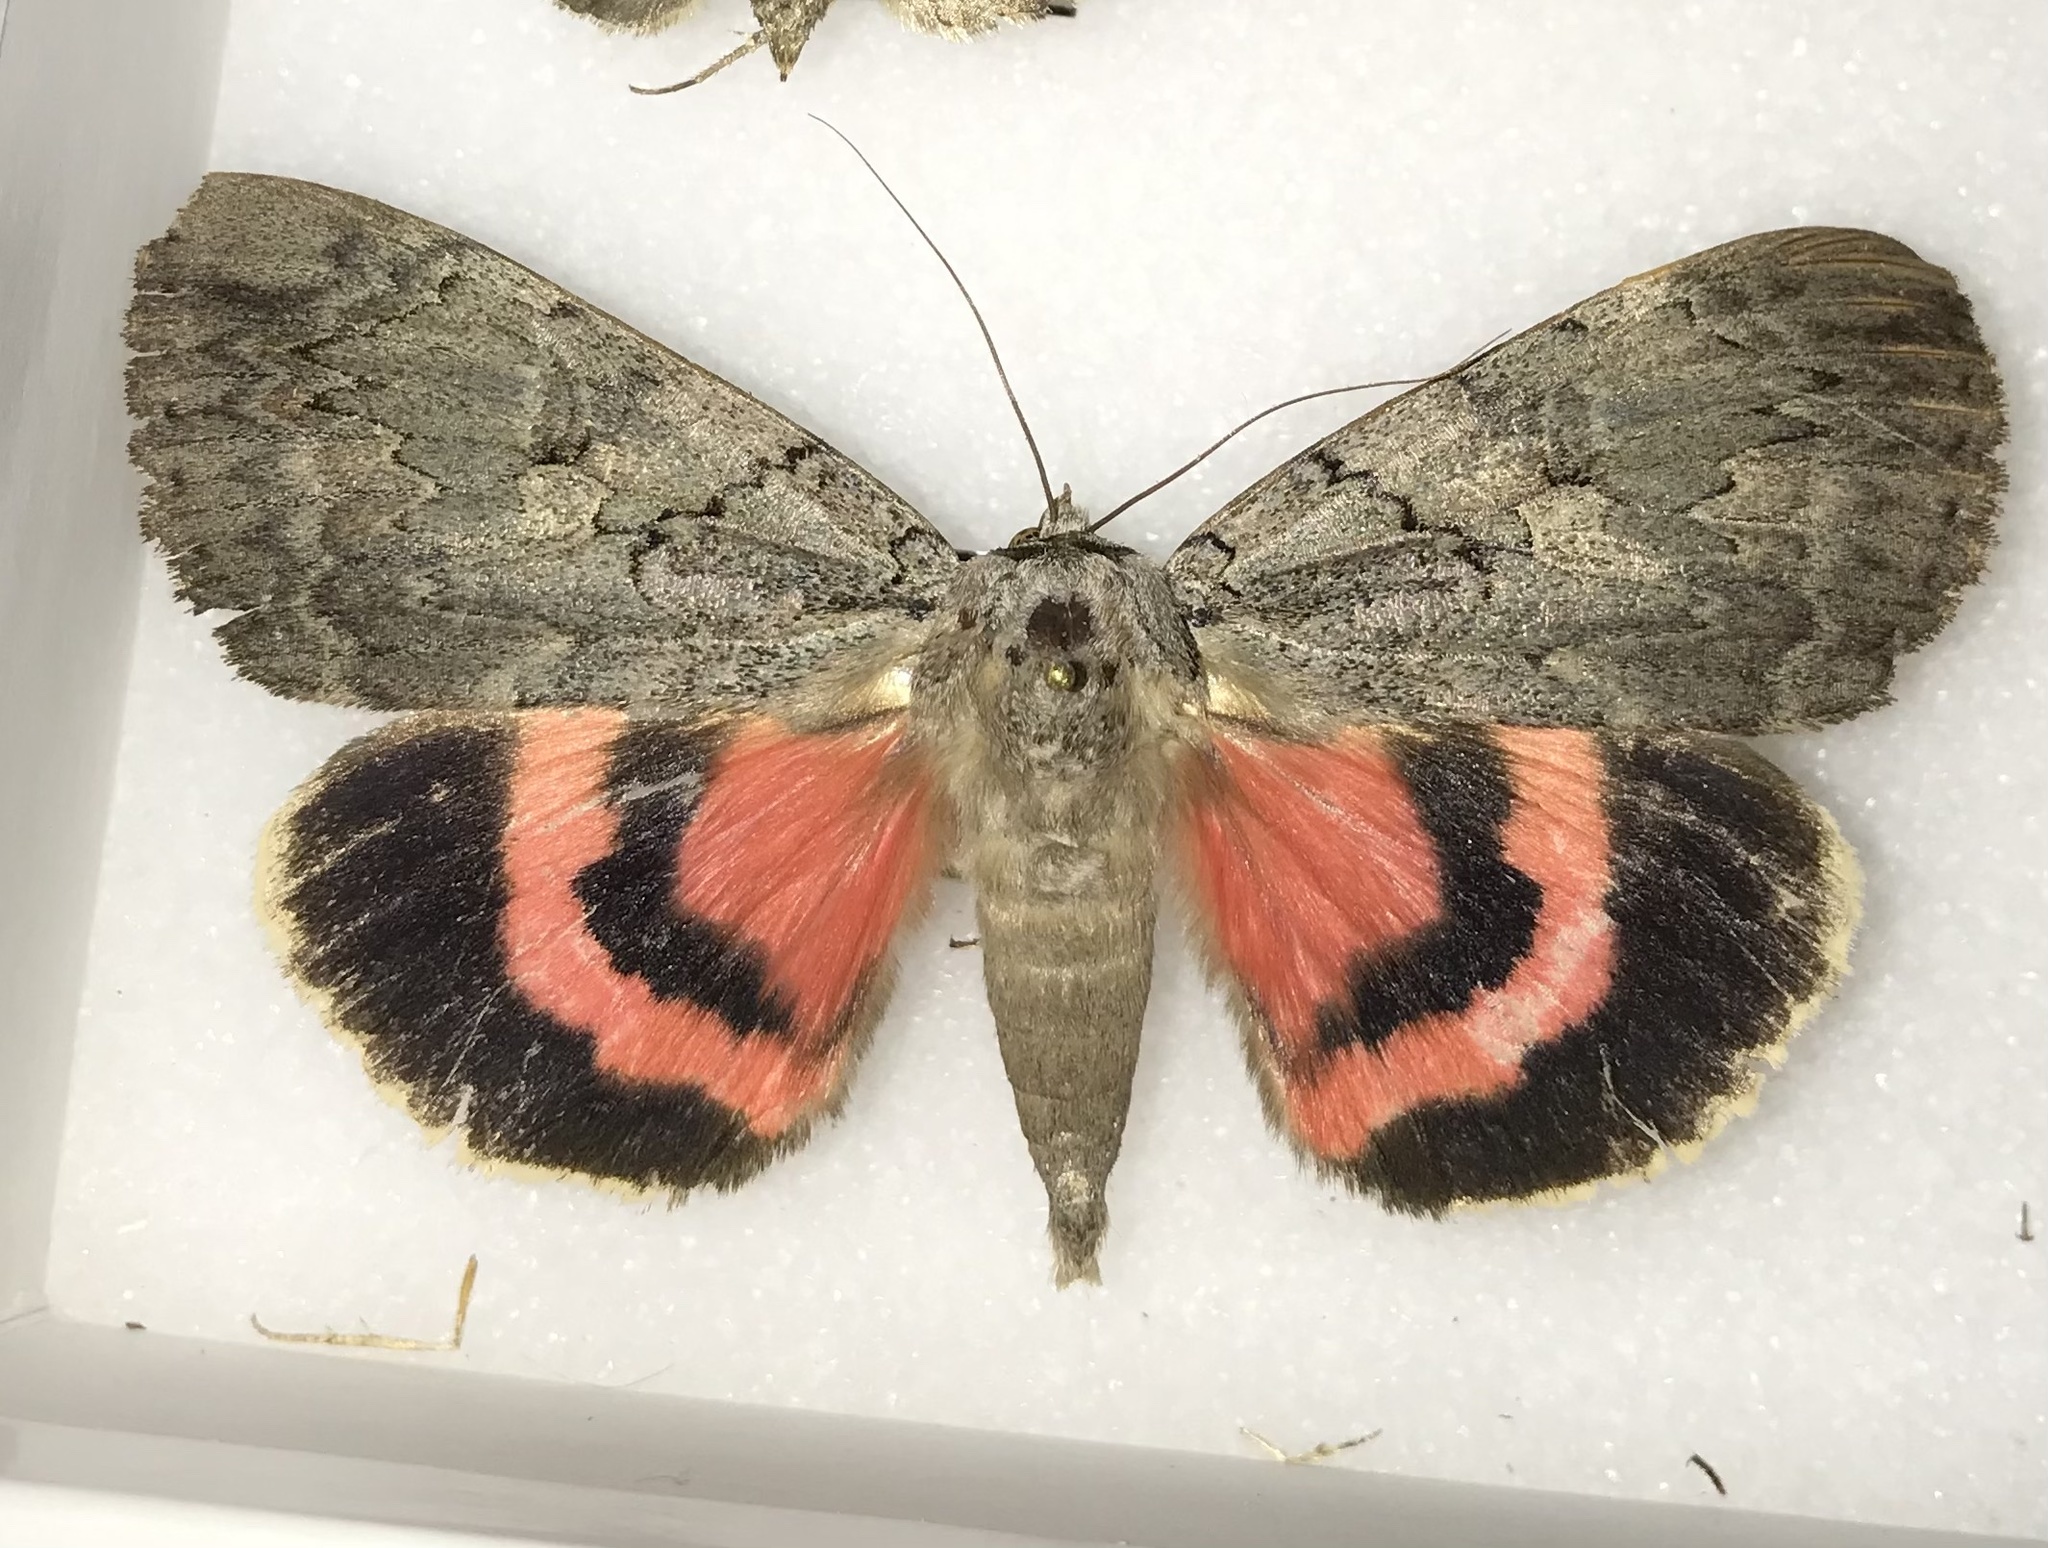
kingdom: Animalia
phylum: Arthropoda
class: Insecta
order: Lepidoptera
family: Erebidae
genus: Catocala
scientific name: Catocala amatrix
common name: Sweetheart underwing
